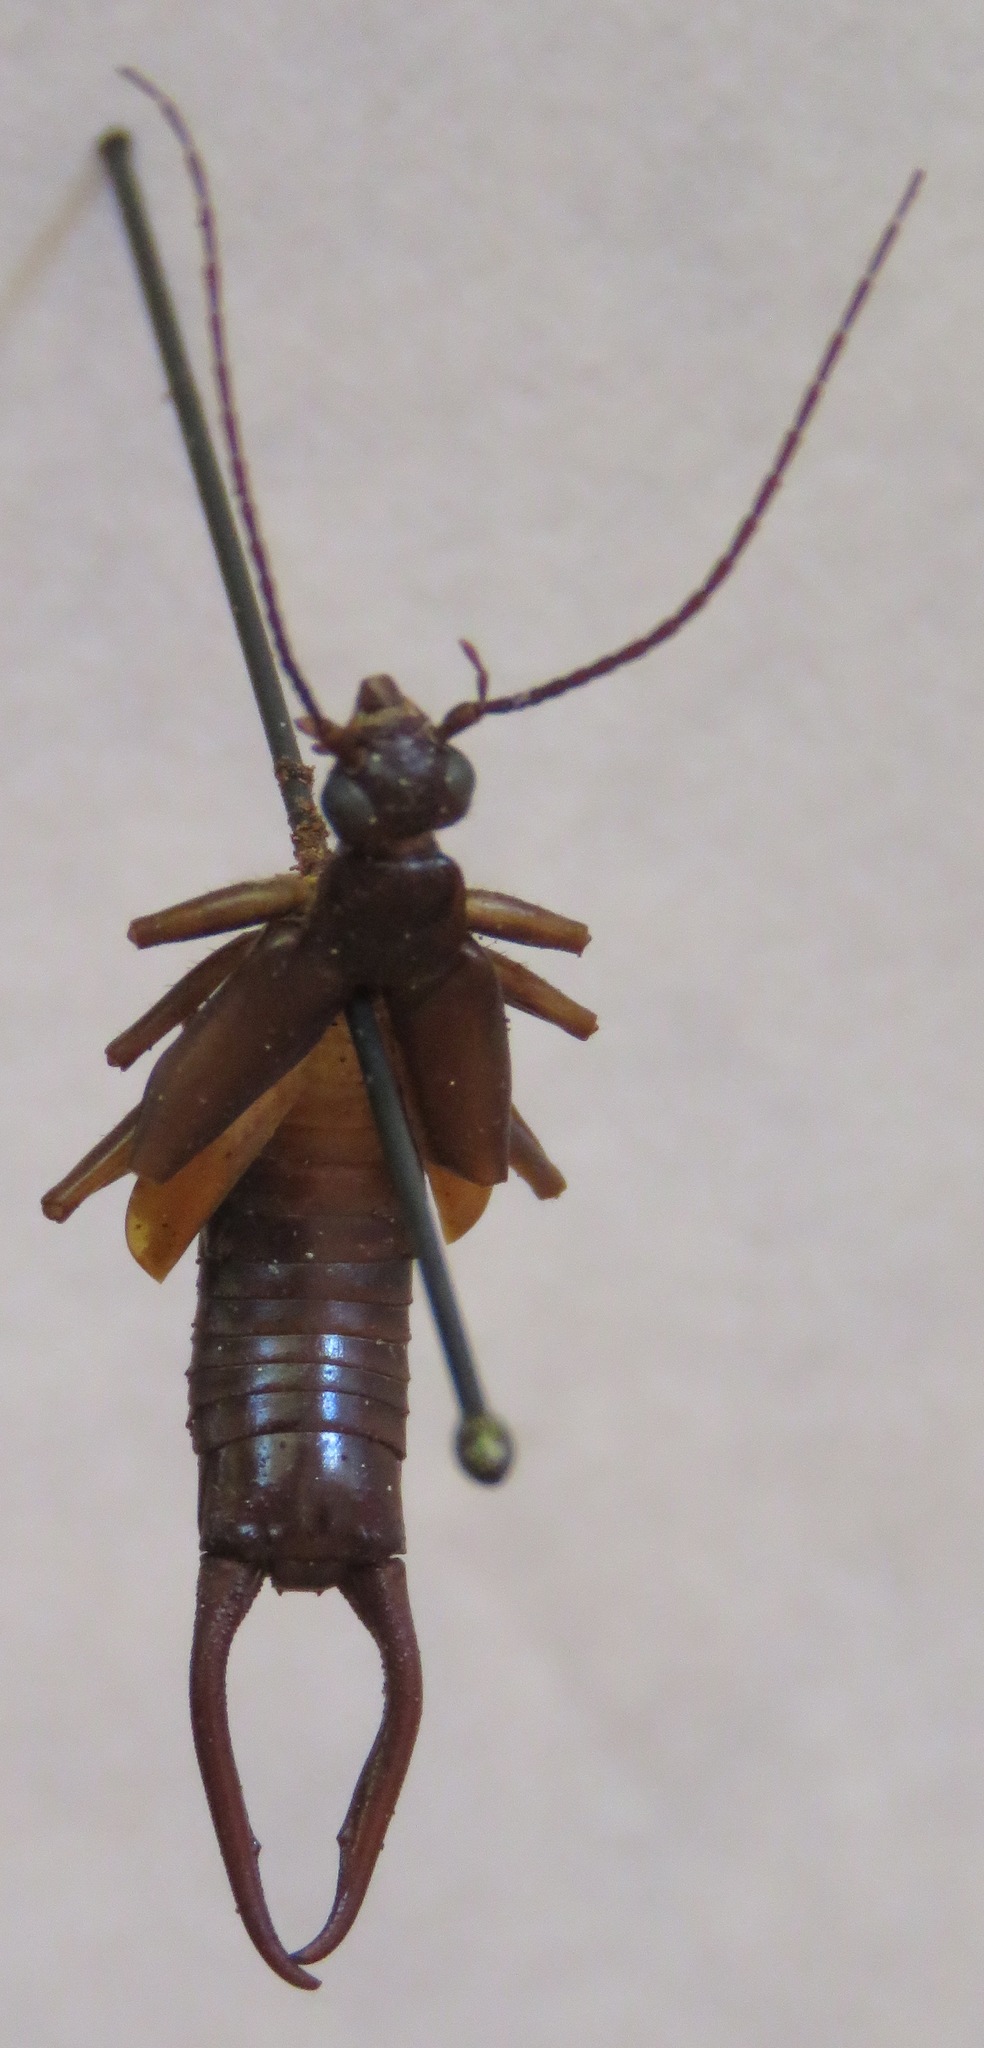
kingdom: Animalia
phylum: Arthropoda
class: Insecta
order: Dermaptera
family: Spongiphoridae
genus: Spongiphora
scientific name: Spongiphora croceipennis
